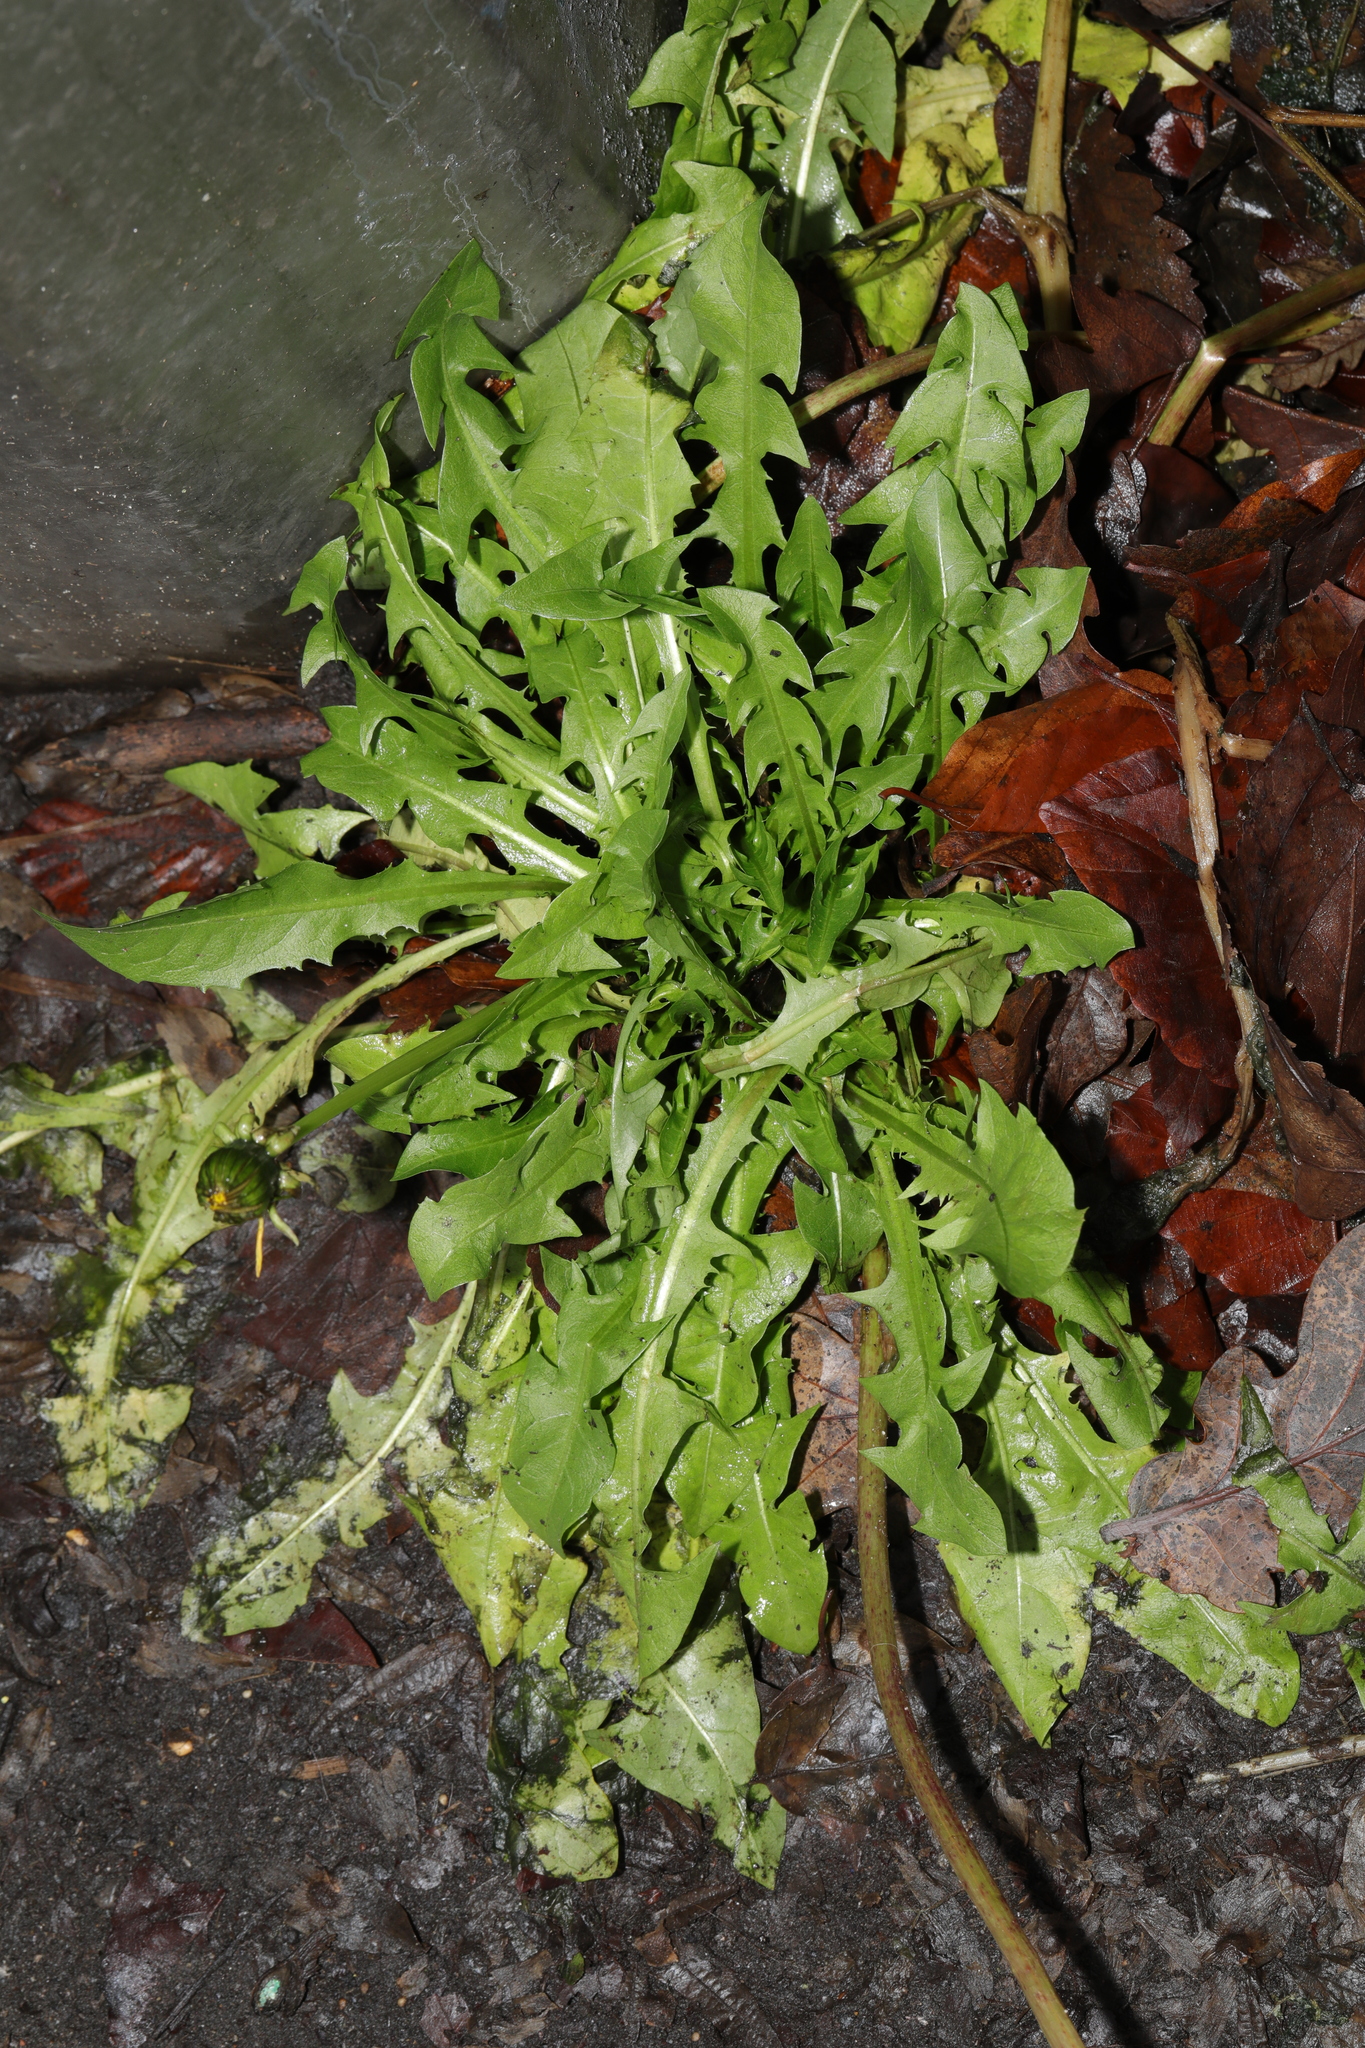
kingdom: Plantae
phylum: Tracheophyta
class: Magnoliopsida
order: Asterales
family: Asteraceae
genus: Taraxacum
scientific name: Taraxacum officinale
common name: Common dandelion
